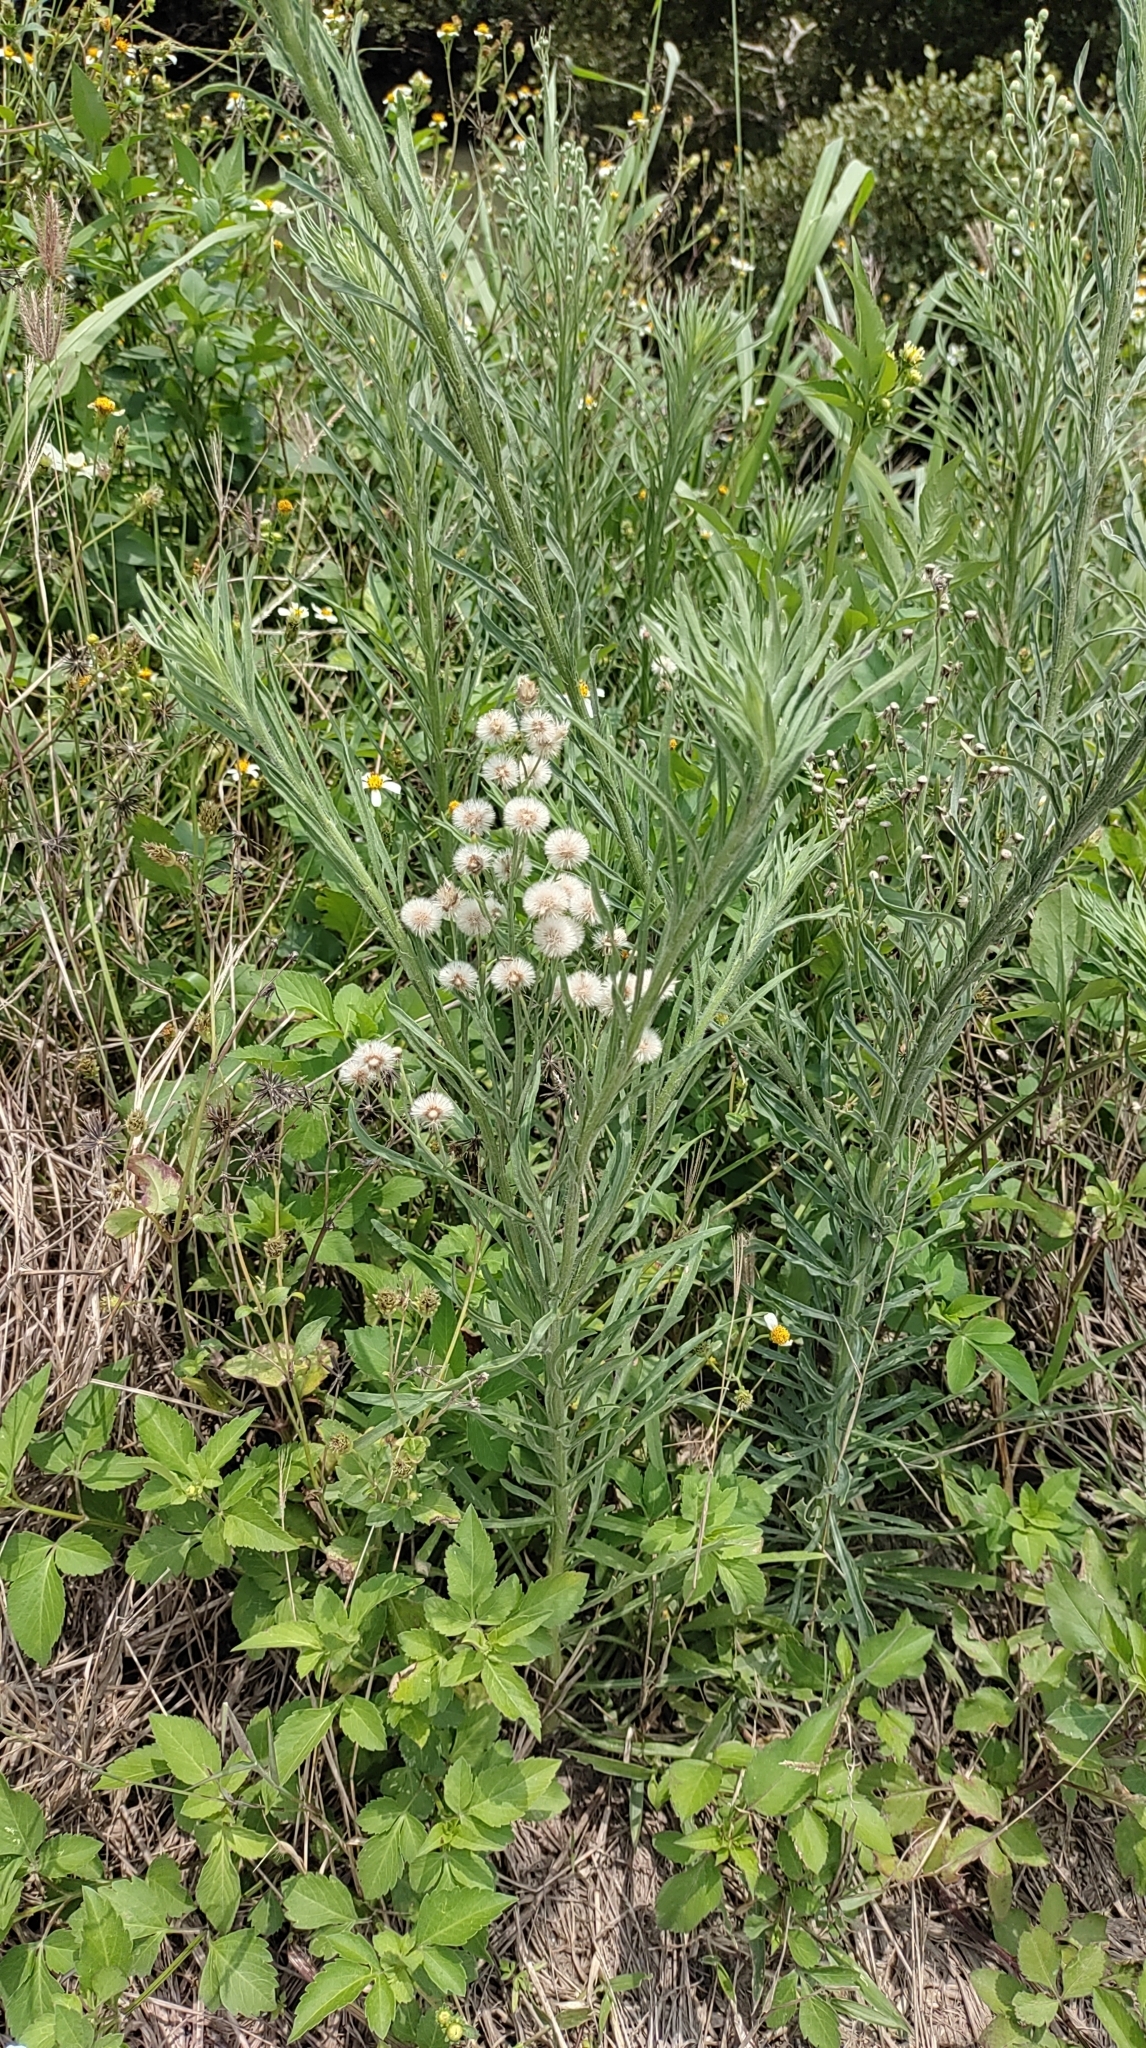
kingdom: Plantae
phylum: Tracheophyta
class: Magnoliopsida
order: Asterales
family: Asteraceae
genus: Erigeron
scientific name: Erigeron bonariensis
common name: Argentine fleabane
